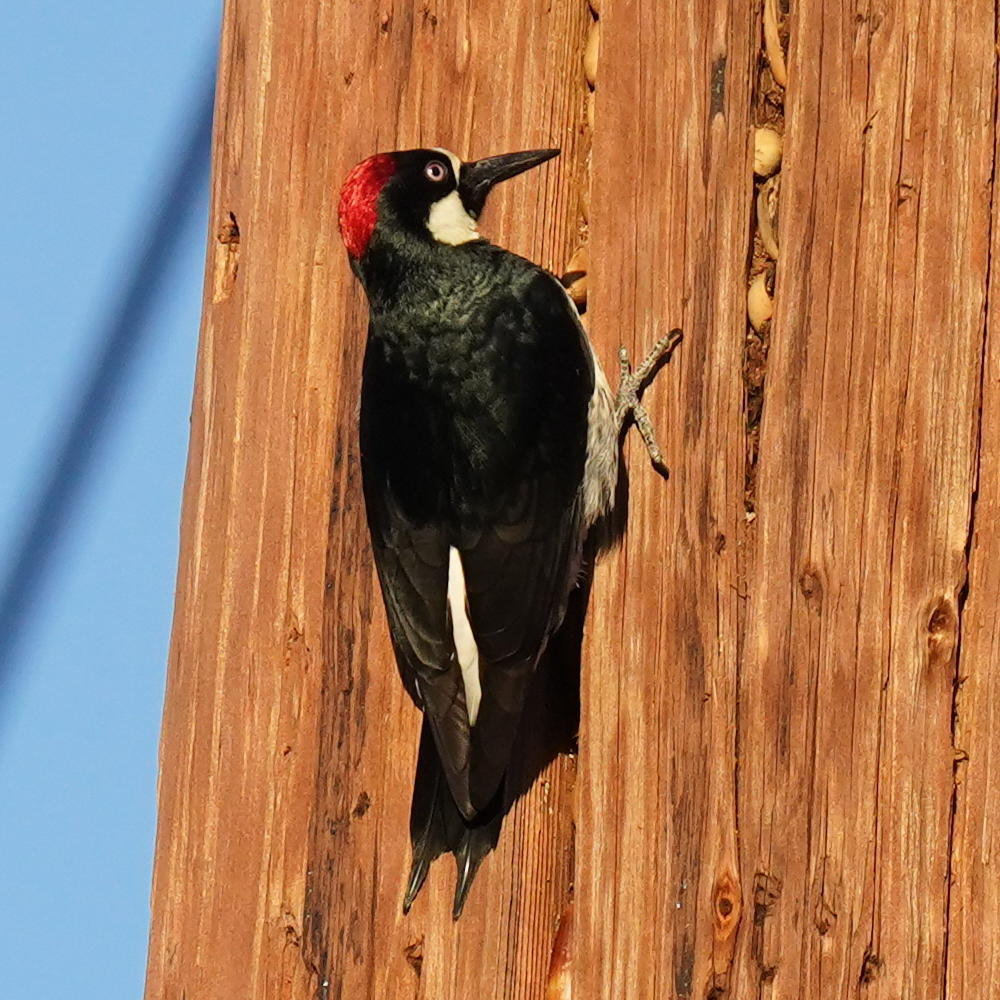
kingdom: Animalia
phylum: Chordata
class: Aves
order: Piciformes
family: Picidae
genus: Melanerpes
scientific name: Melanerpes formicivorus
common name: Acorn woodpecker
